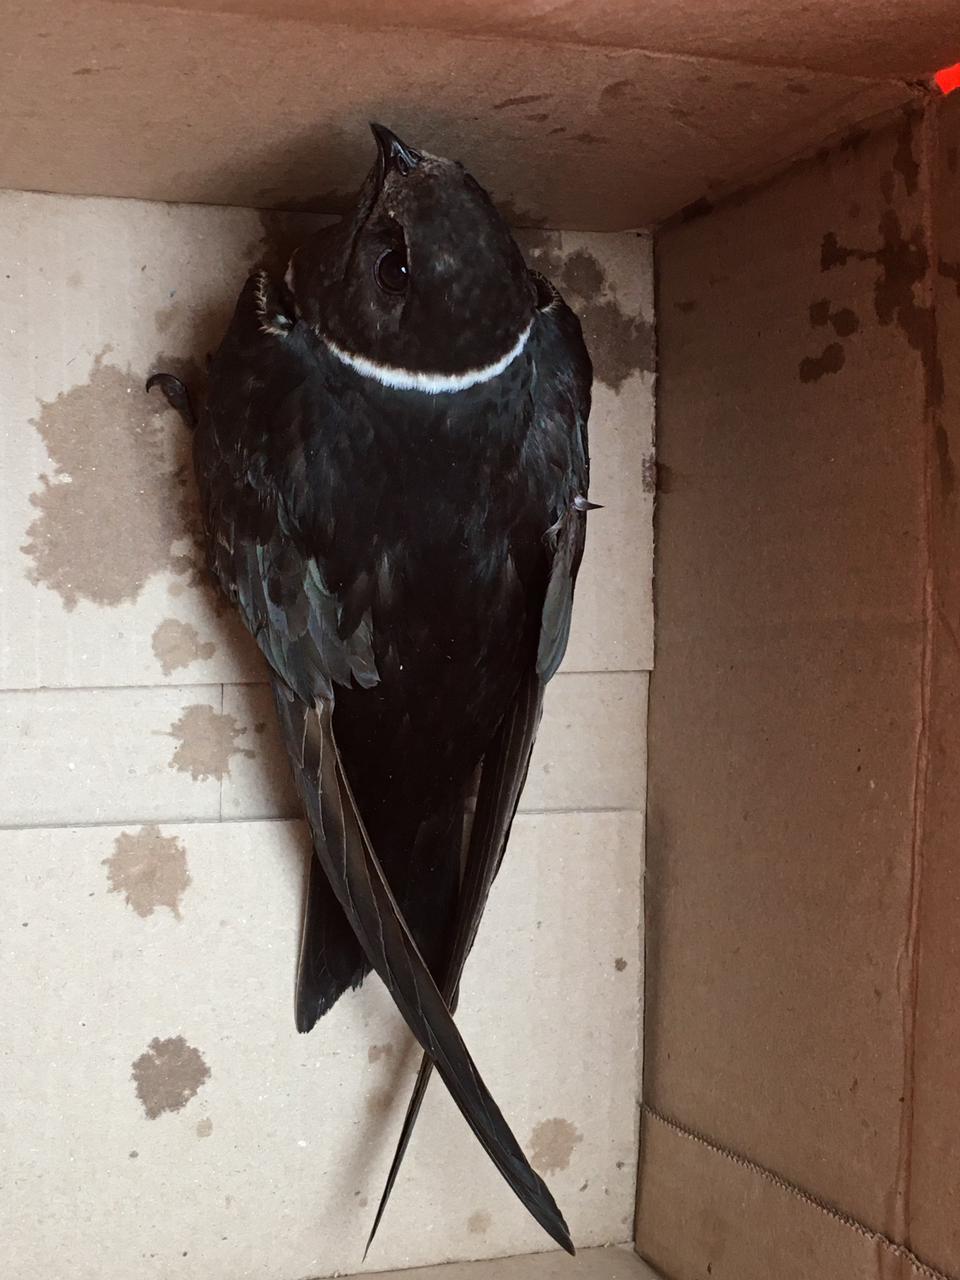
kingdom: Animalia
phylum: Chordata
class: Aves
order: Apodiformes
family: Apodidae
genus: Streptoprocne
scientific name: Streptoprocne zonaris
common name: White-collared swift
